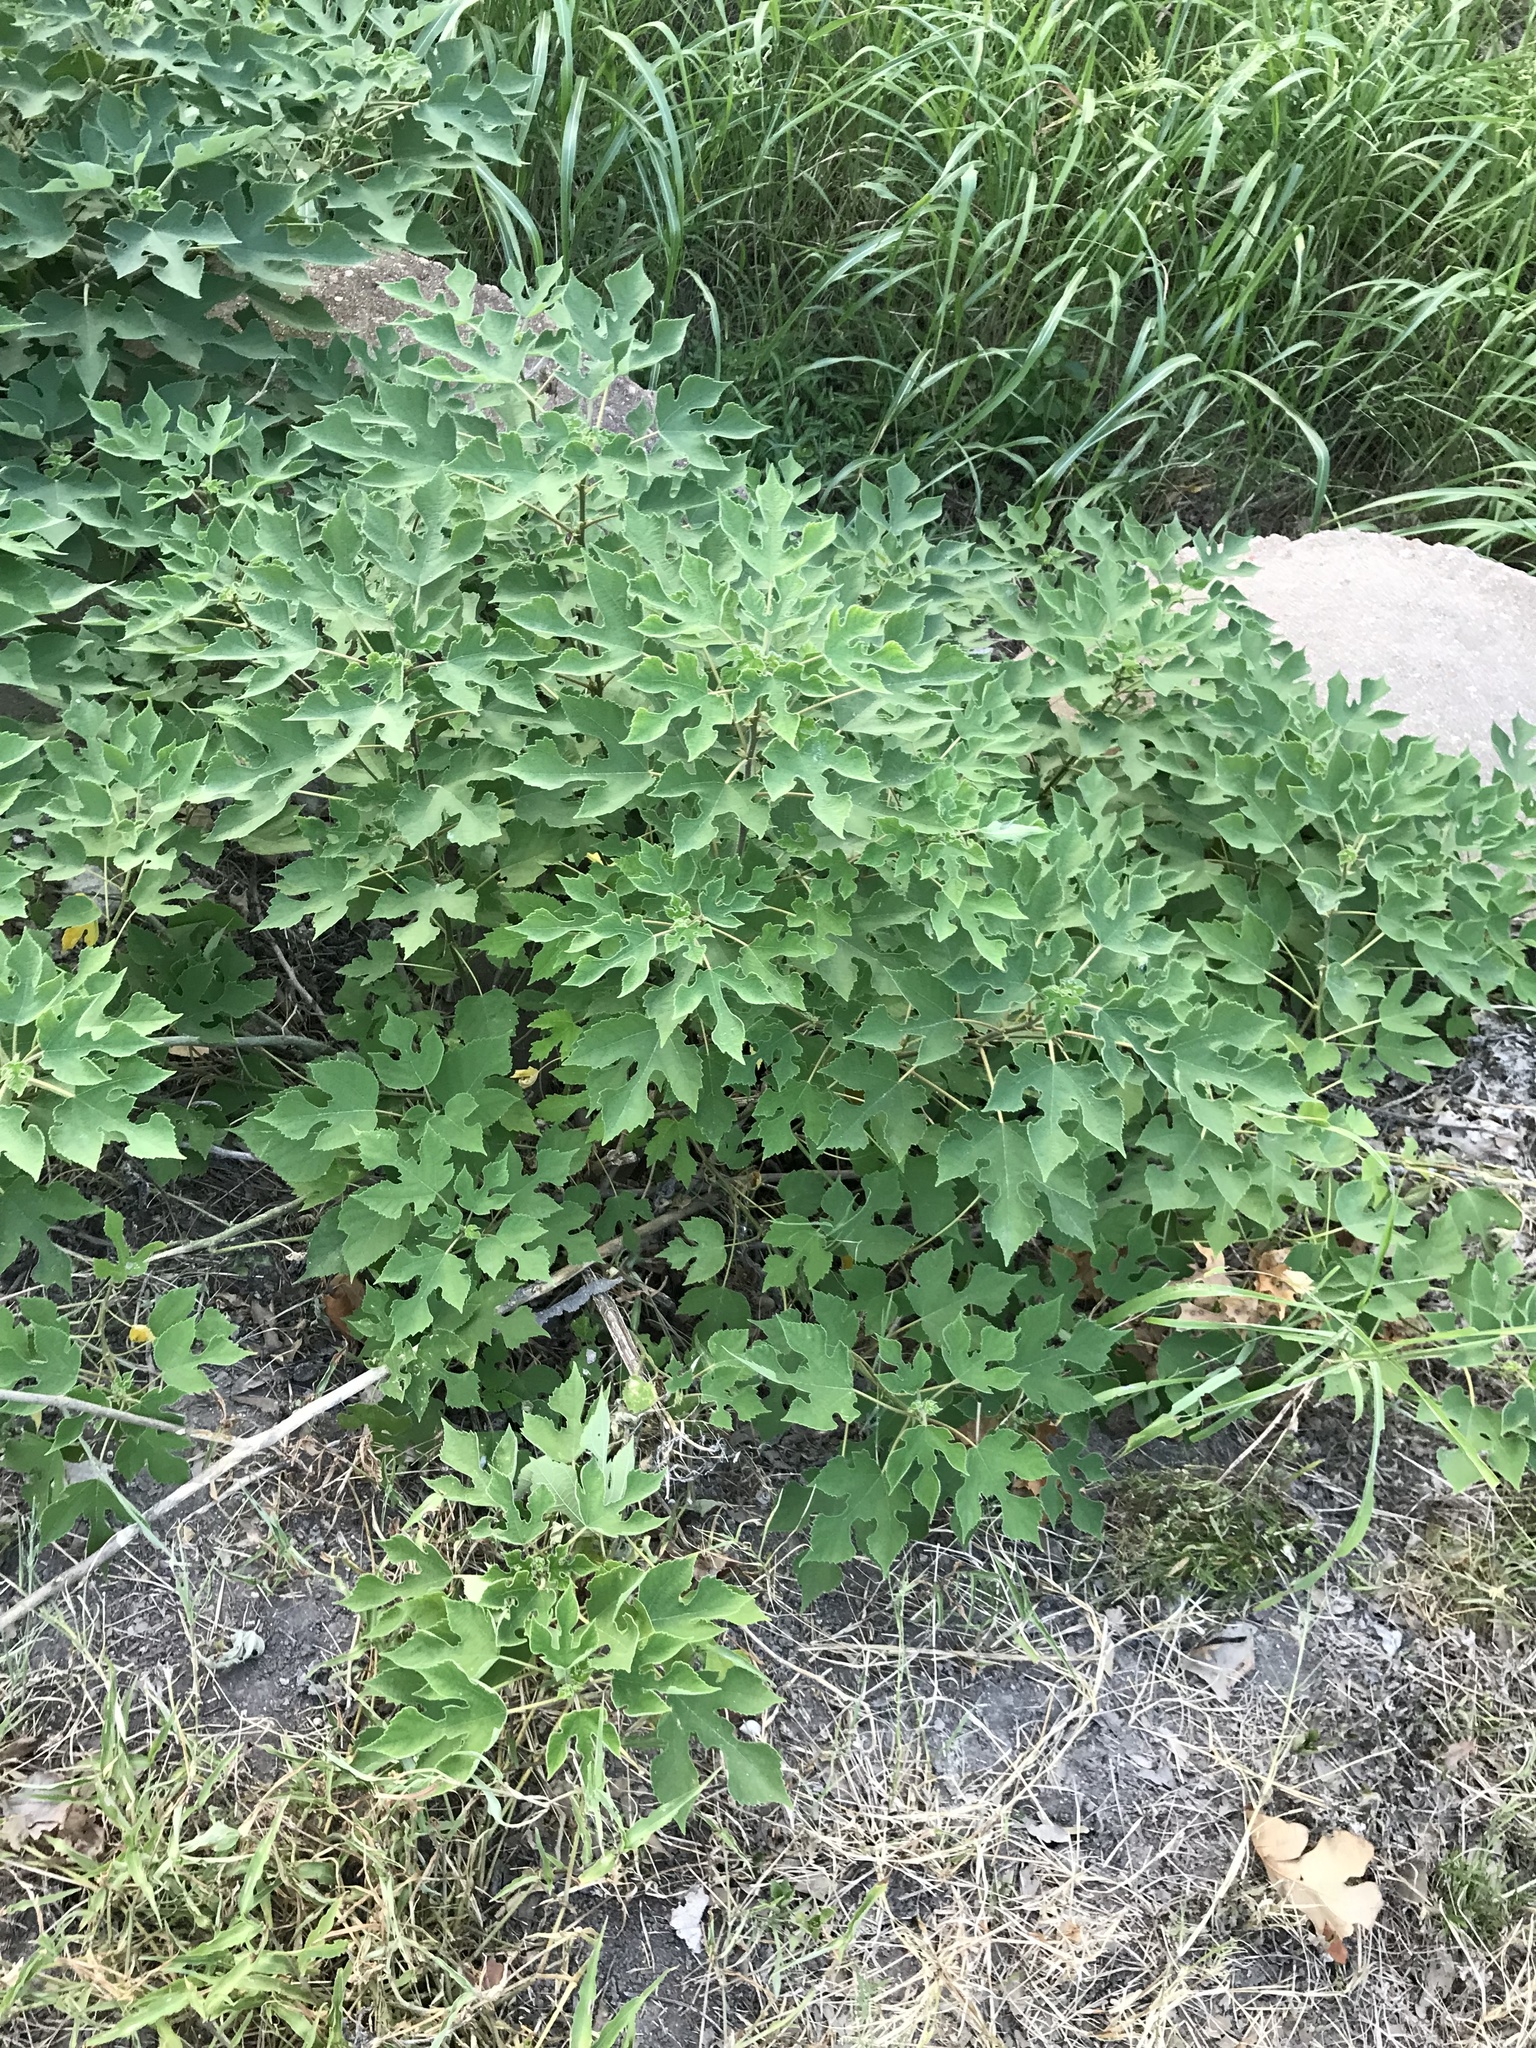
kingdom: Plantae
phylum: Tracheophyta
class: Magnoliopsida
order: Rosales
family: Moraceae
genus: Broussonetia
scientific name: Broussonetia papyrifera
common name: Paper mulberry
